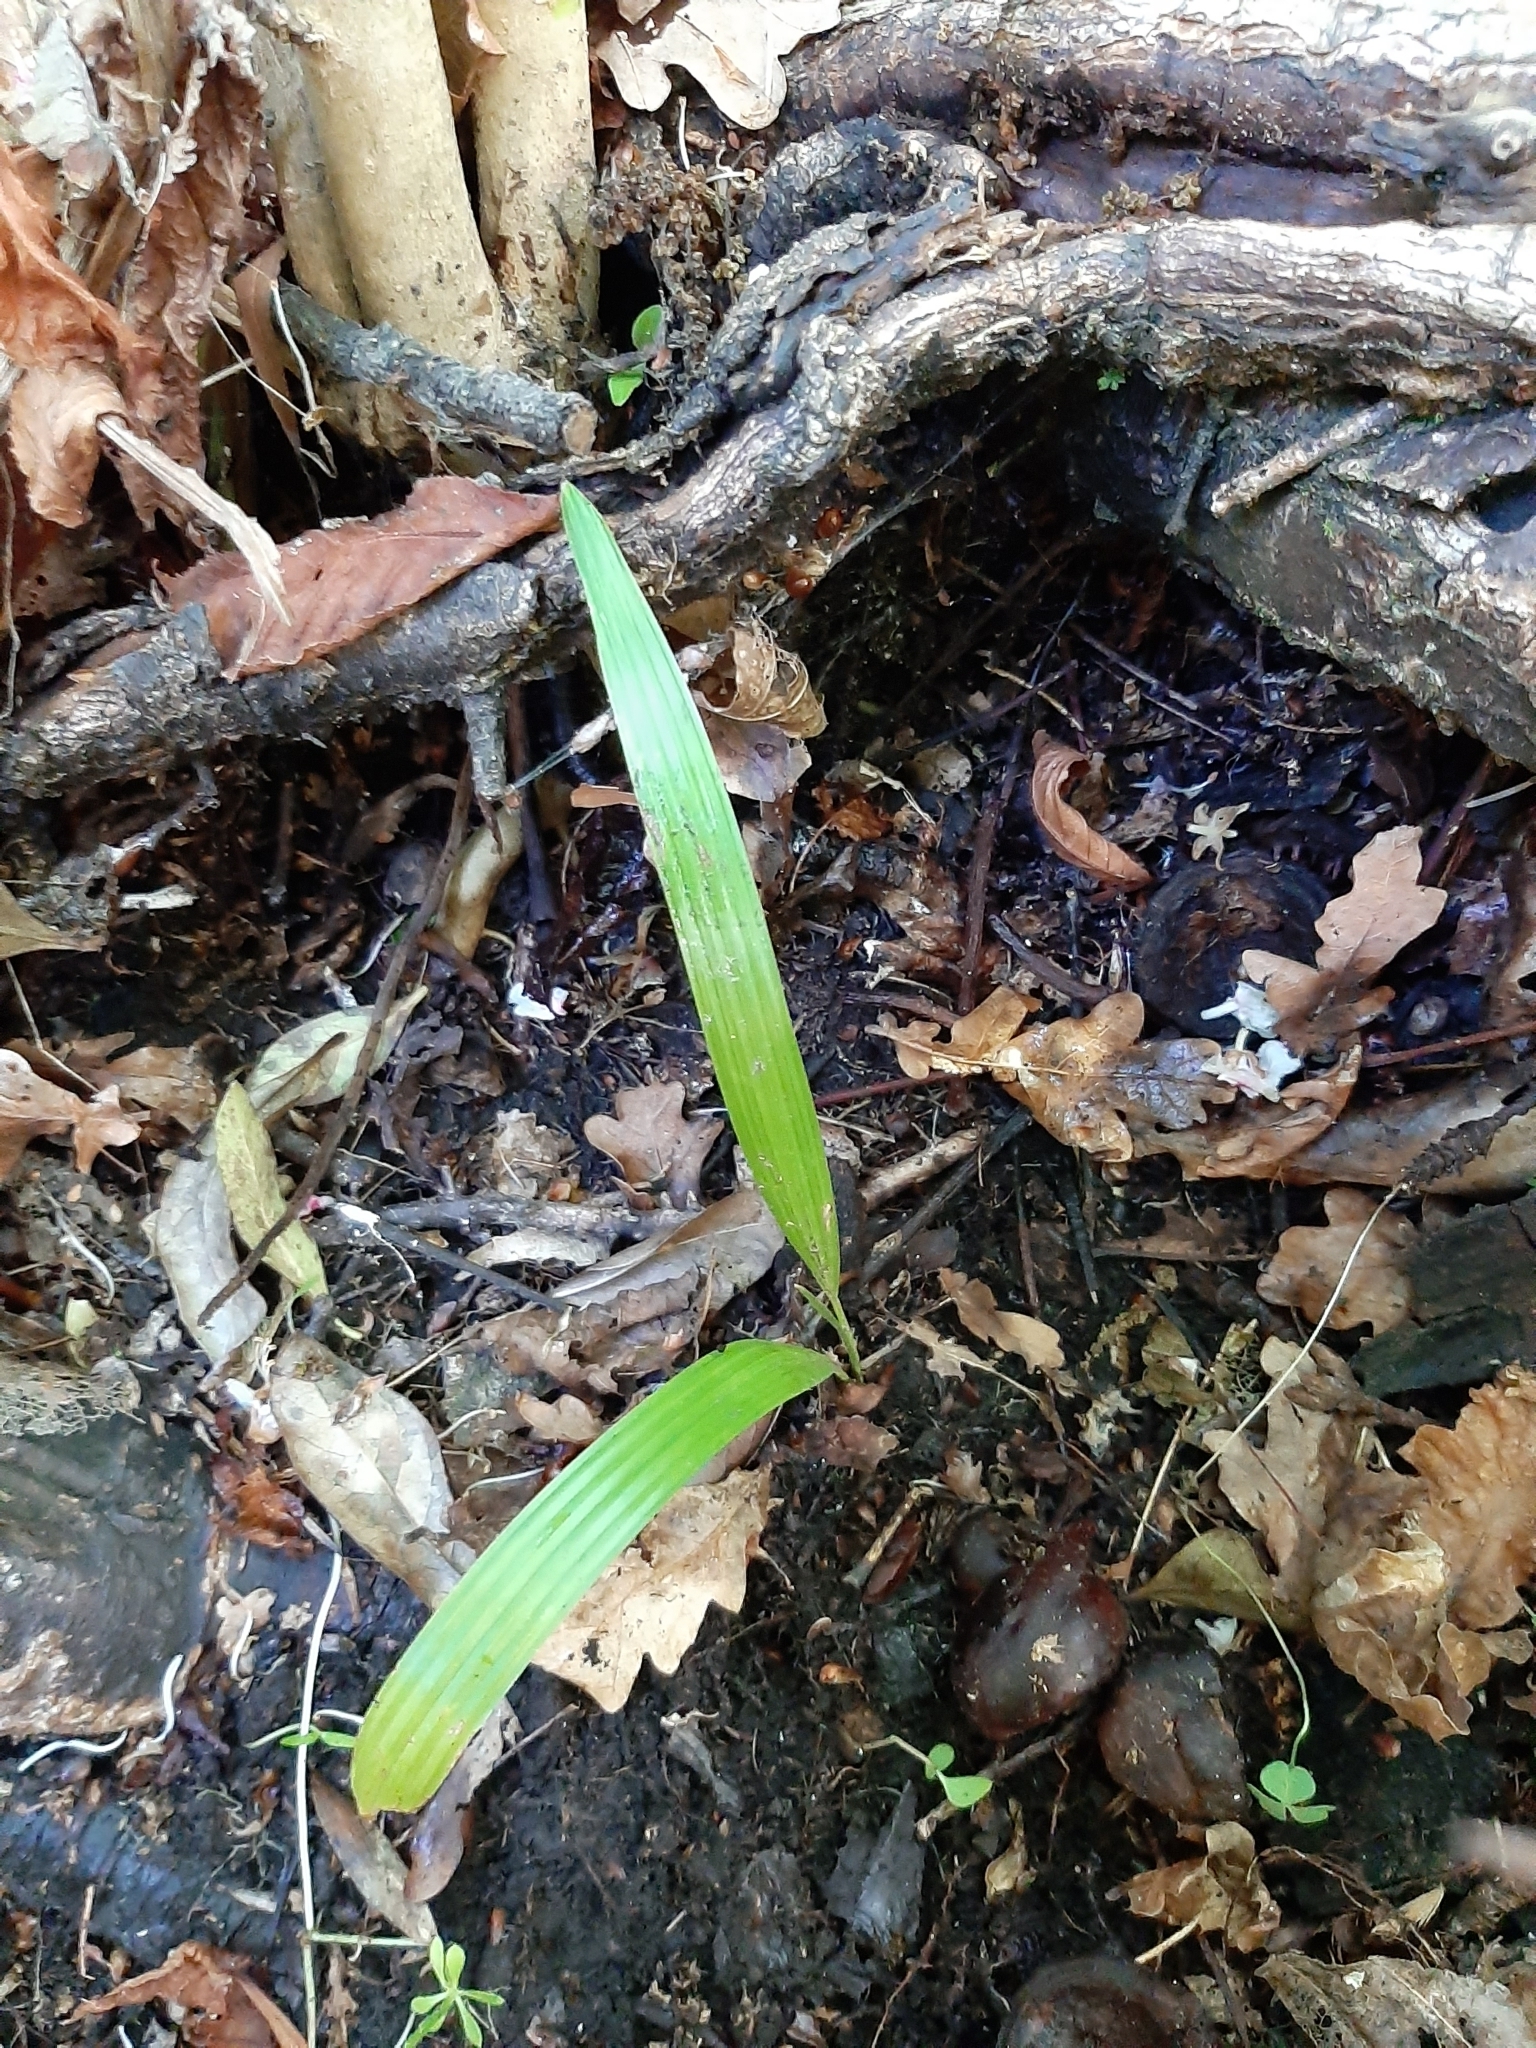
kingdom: Plantae
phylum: Tracheophyta
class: Liliopsida
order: Arecales
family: Arecaceae
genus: Trachycarpus
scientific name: Trachycarpus fortunei
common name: Chusan palm
